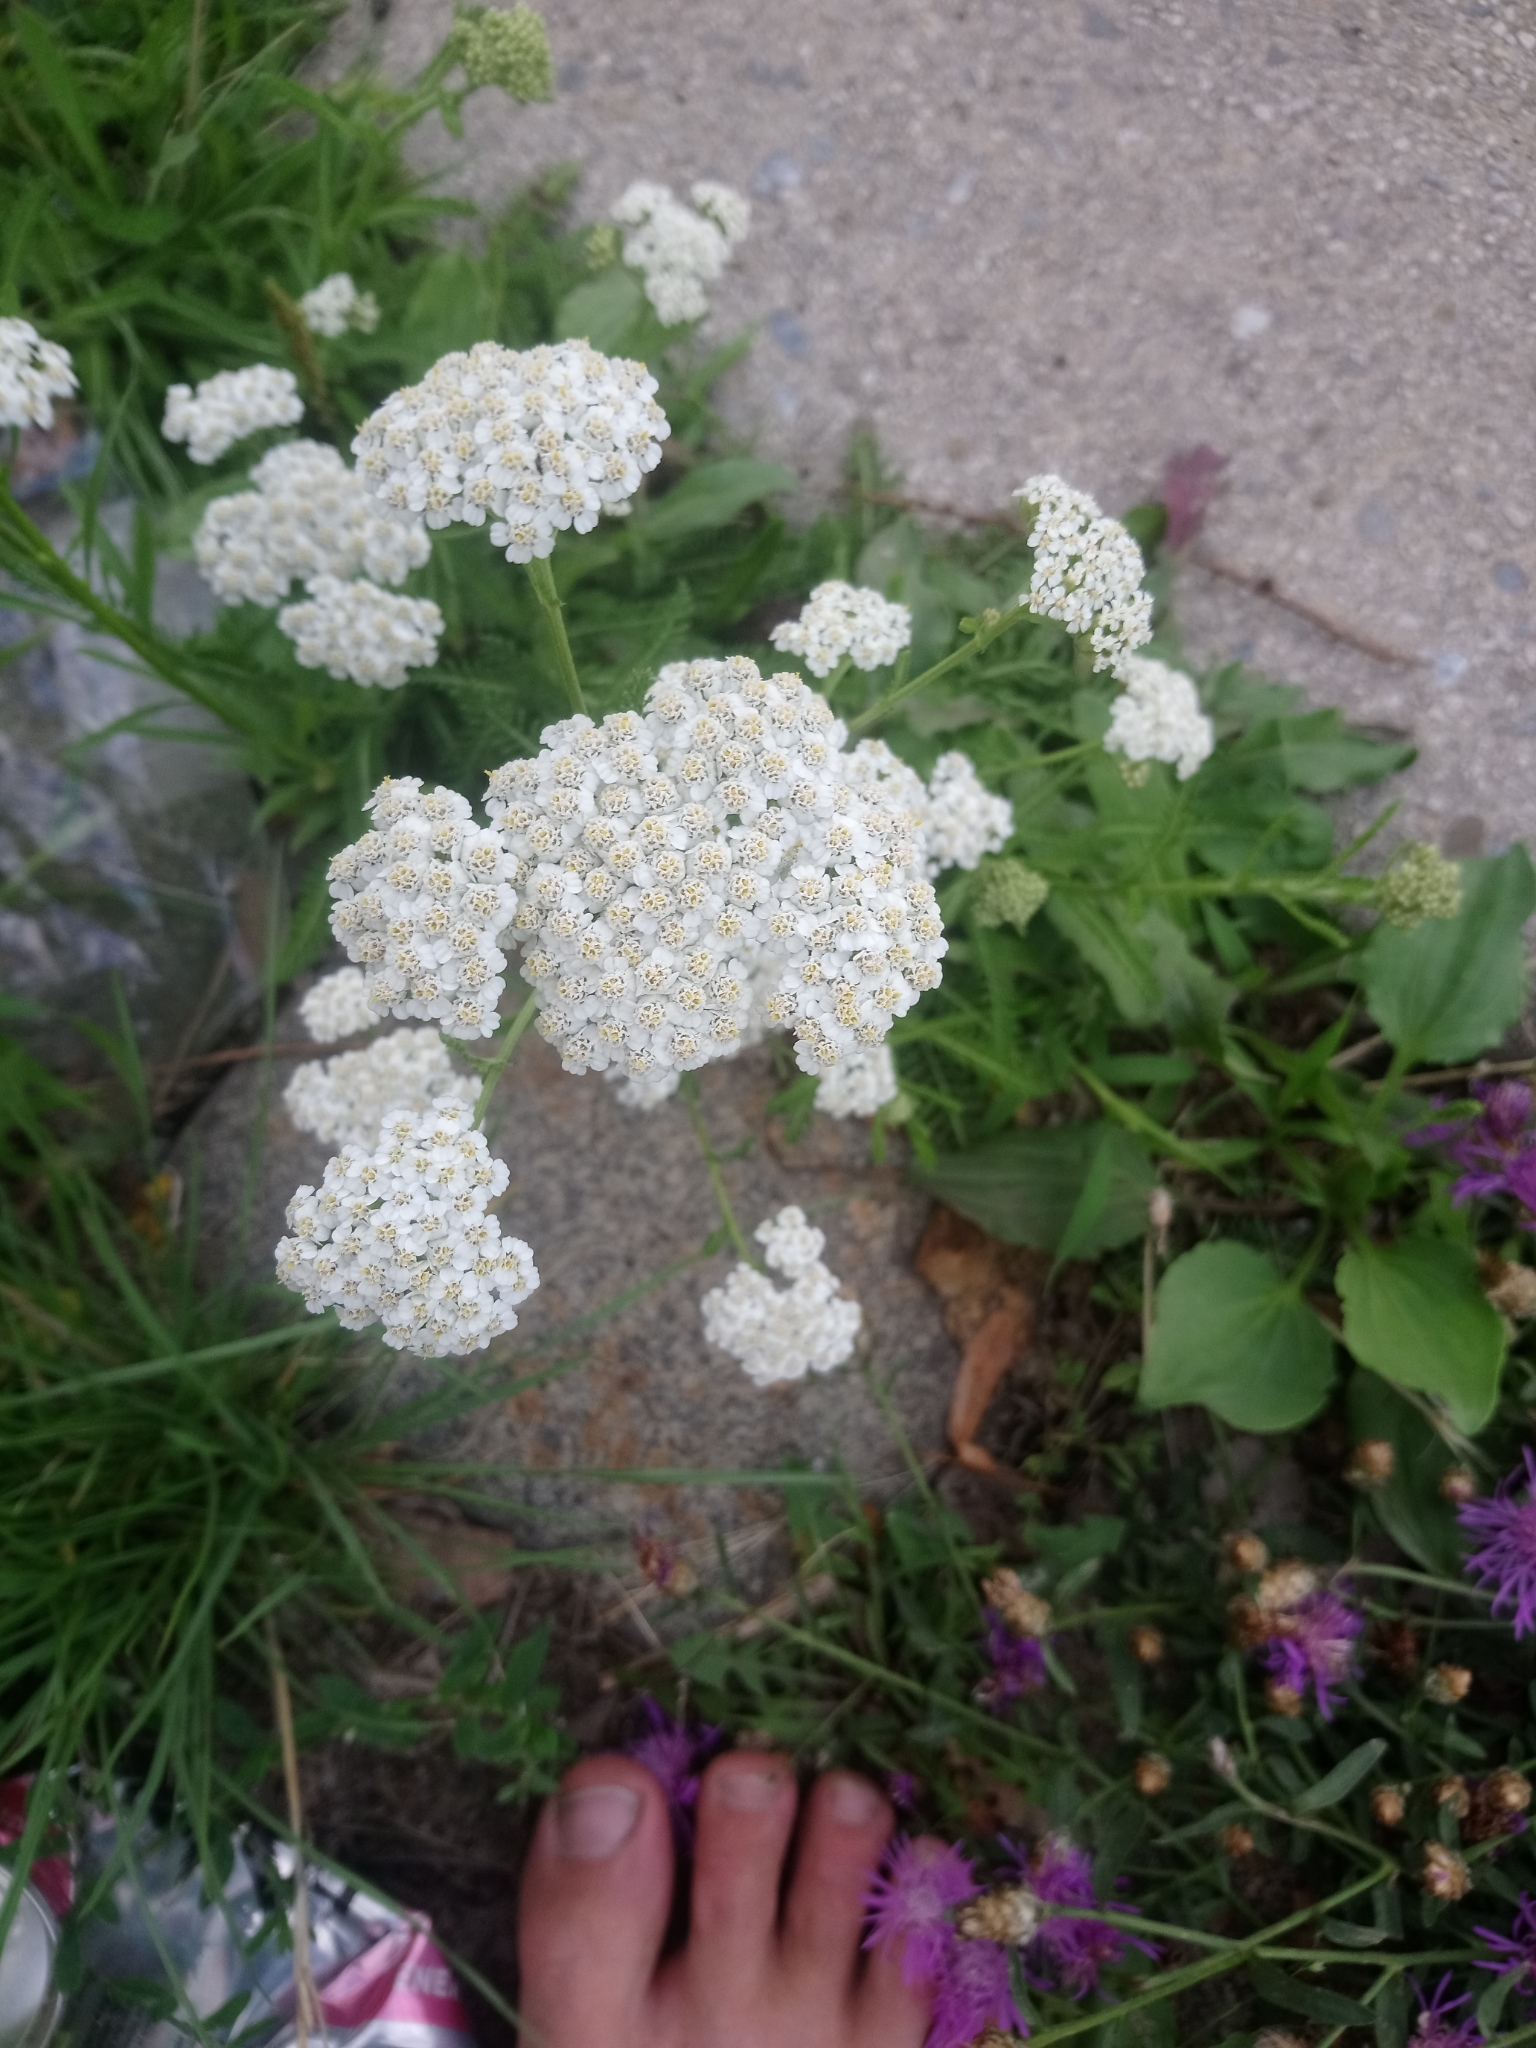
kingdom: Plantae
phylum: Tracheophyta
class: Magnoliopsida
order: Asterales
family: Asteraceae
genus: Achillea
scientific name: Achillea millefolium
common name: Yarrow
